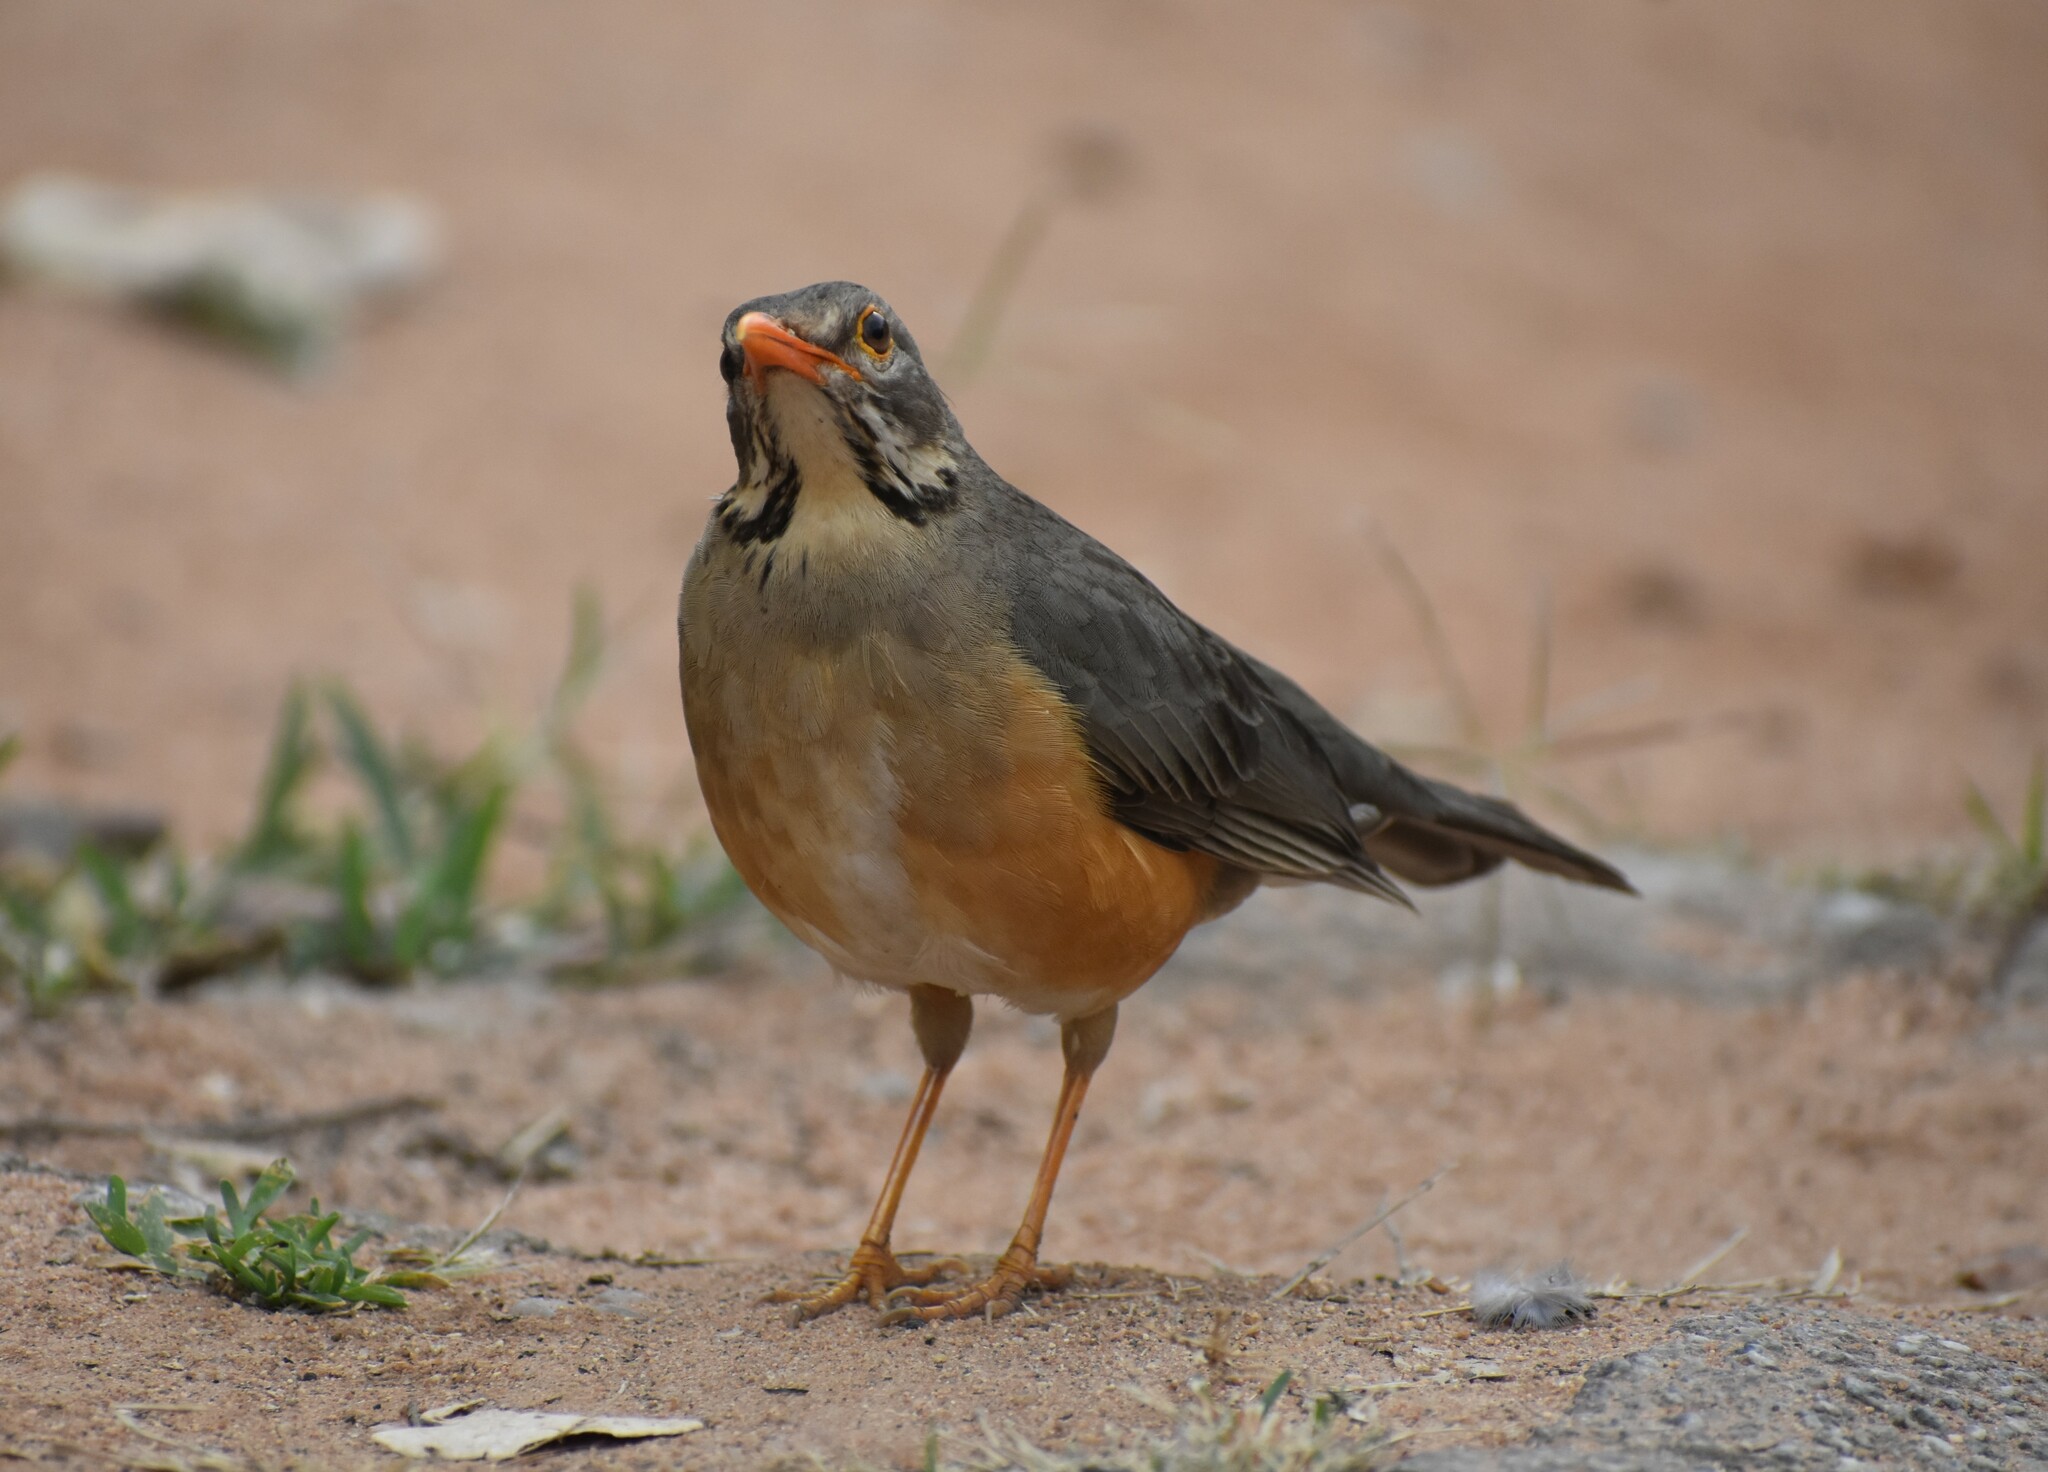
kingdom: Animalia
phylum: Chordata
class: Aves
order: Passeriformes
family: Turdidae
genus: Turdus
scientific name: Turdus libonyana
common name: Kurrichane thrush
